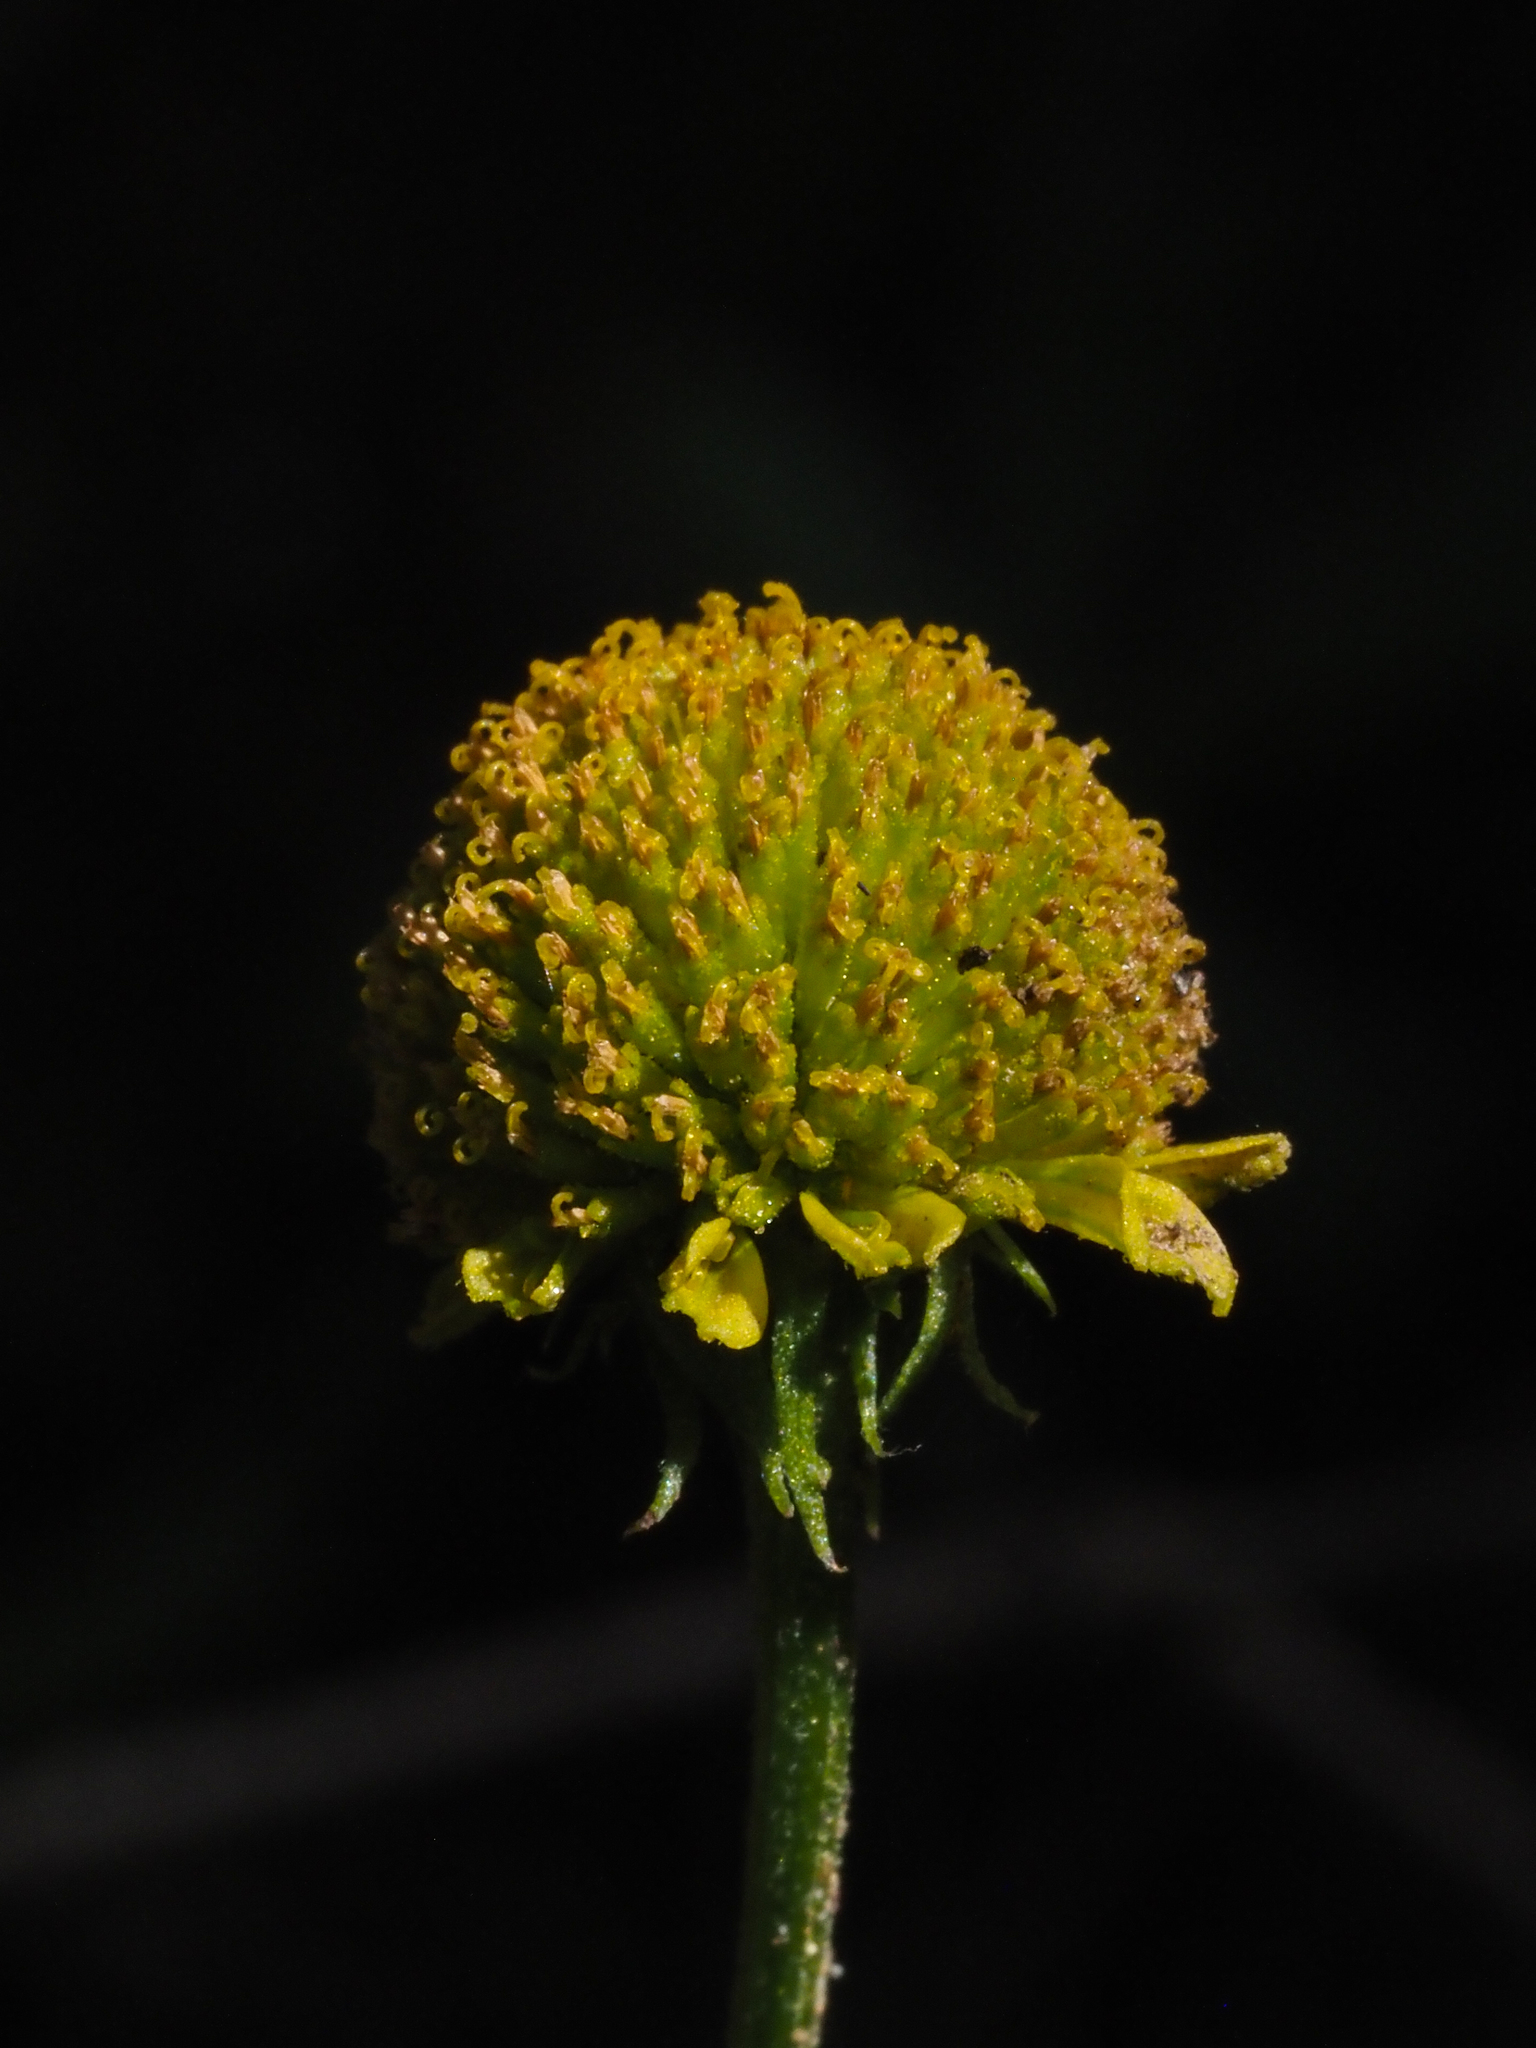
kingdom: Plantae
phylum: Tracheophyta
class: Magnoliopsida
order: Asterales
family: Asteraceae
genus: Helenium
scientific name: Helenium puberulum
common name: Sneezewort
